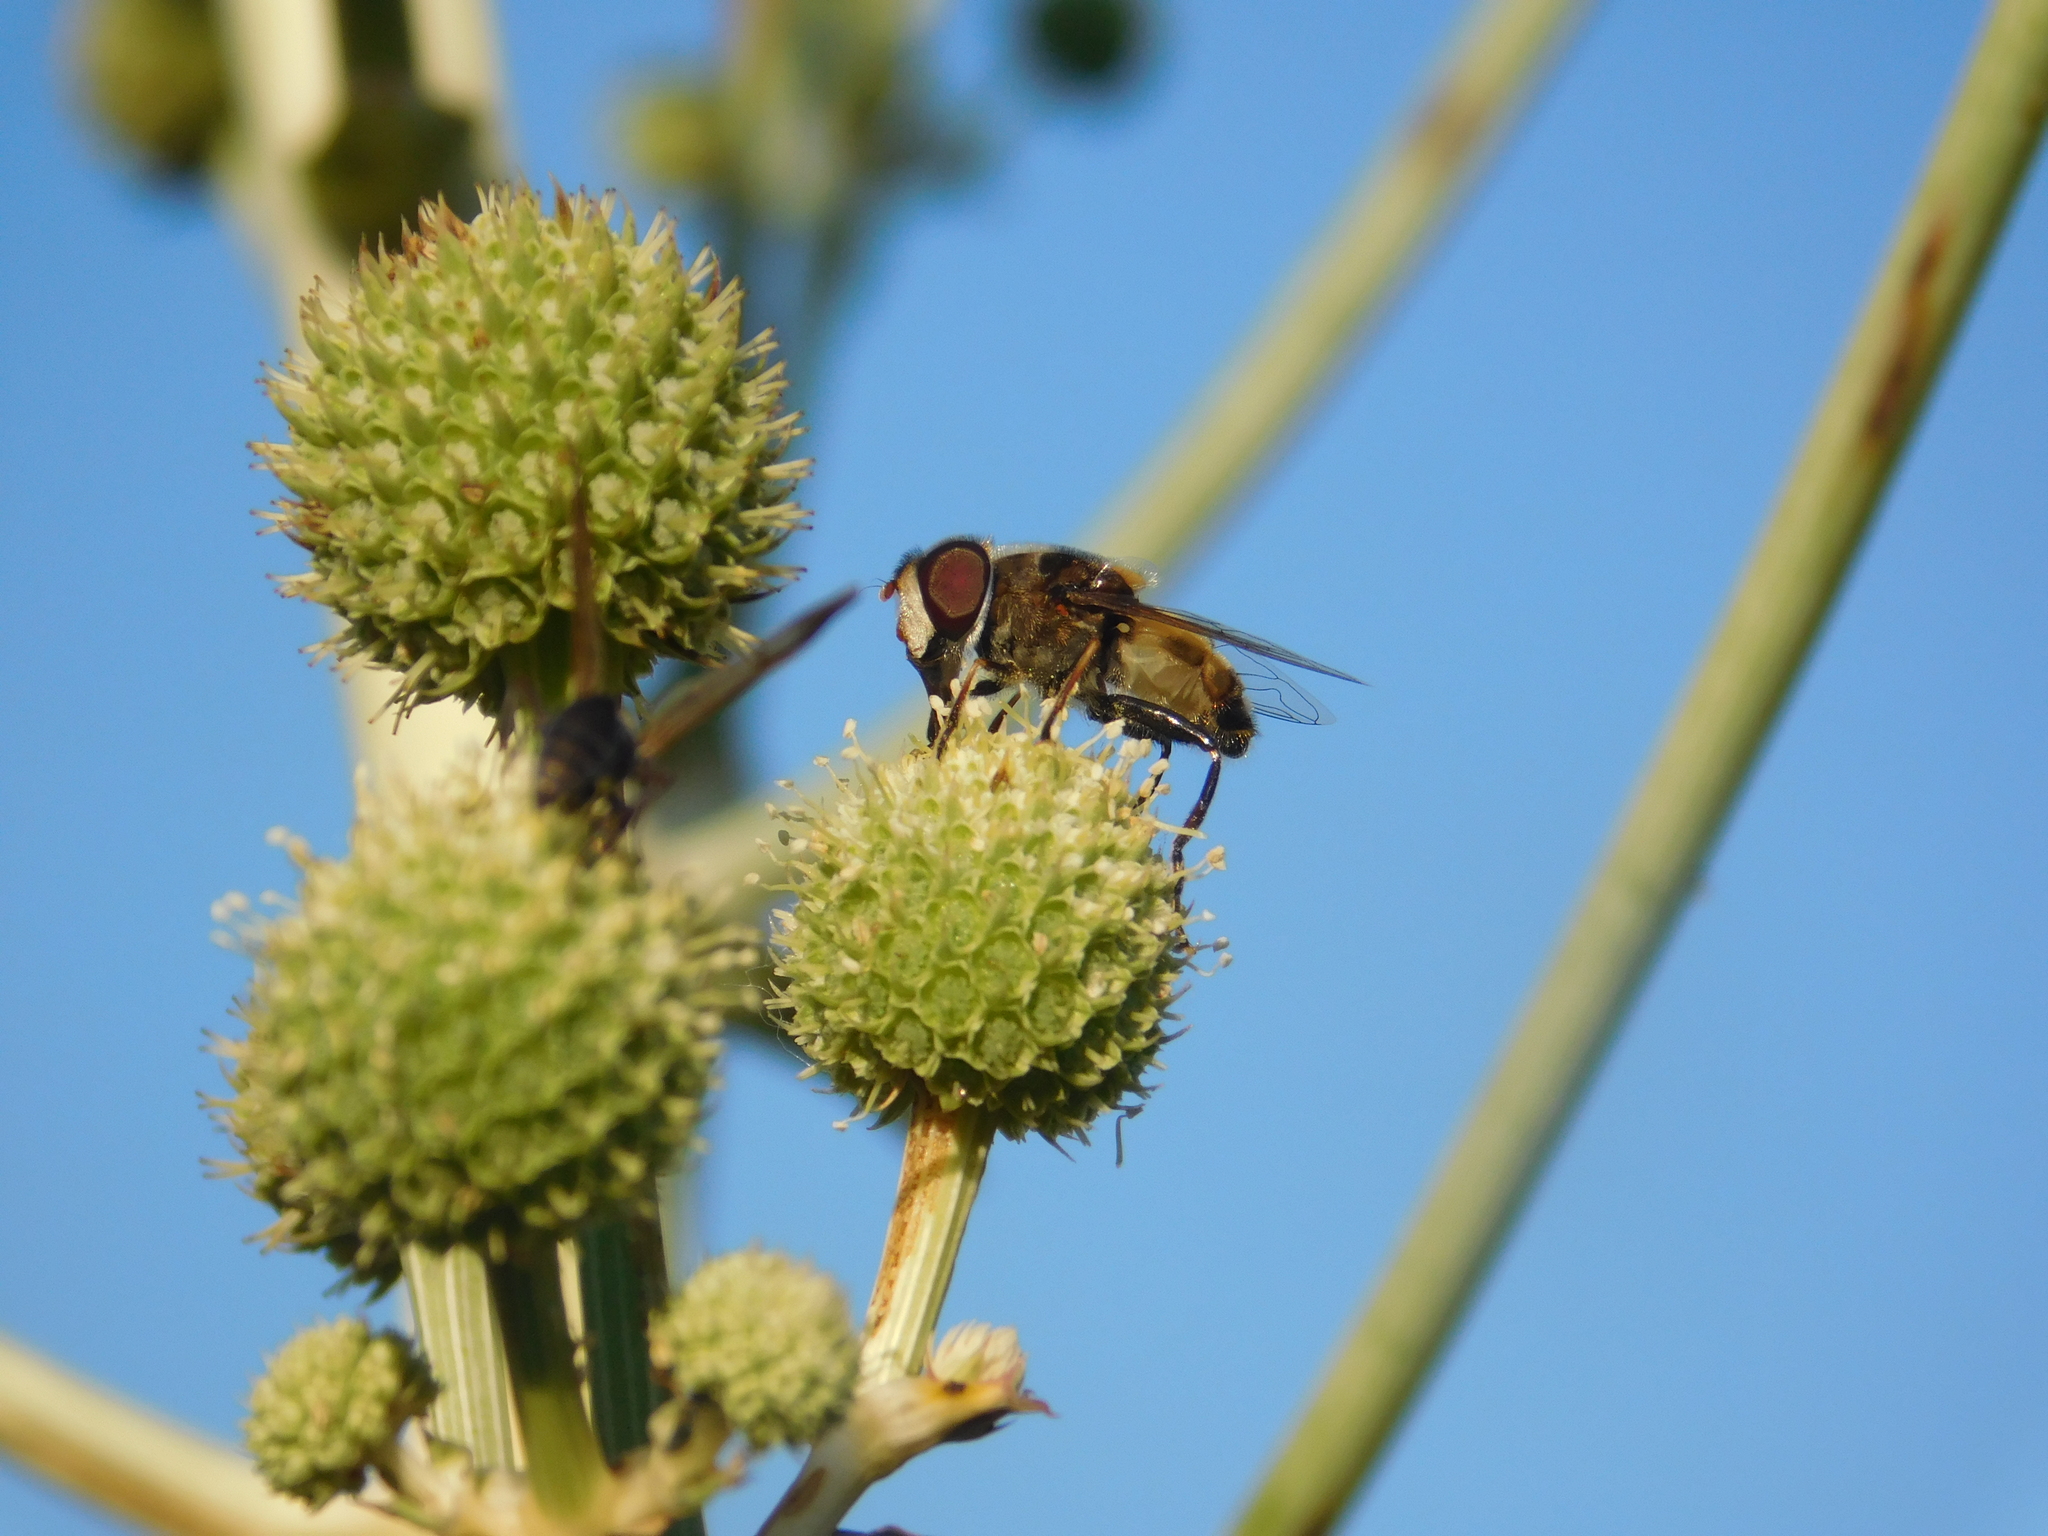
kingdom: Animalia
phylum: Arthropoda
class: Insecta
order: Diptera
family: Syrphidae
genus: Palpada
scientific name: Palpada
